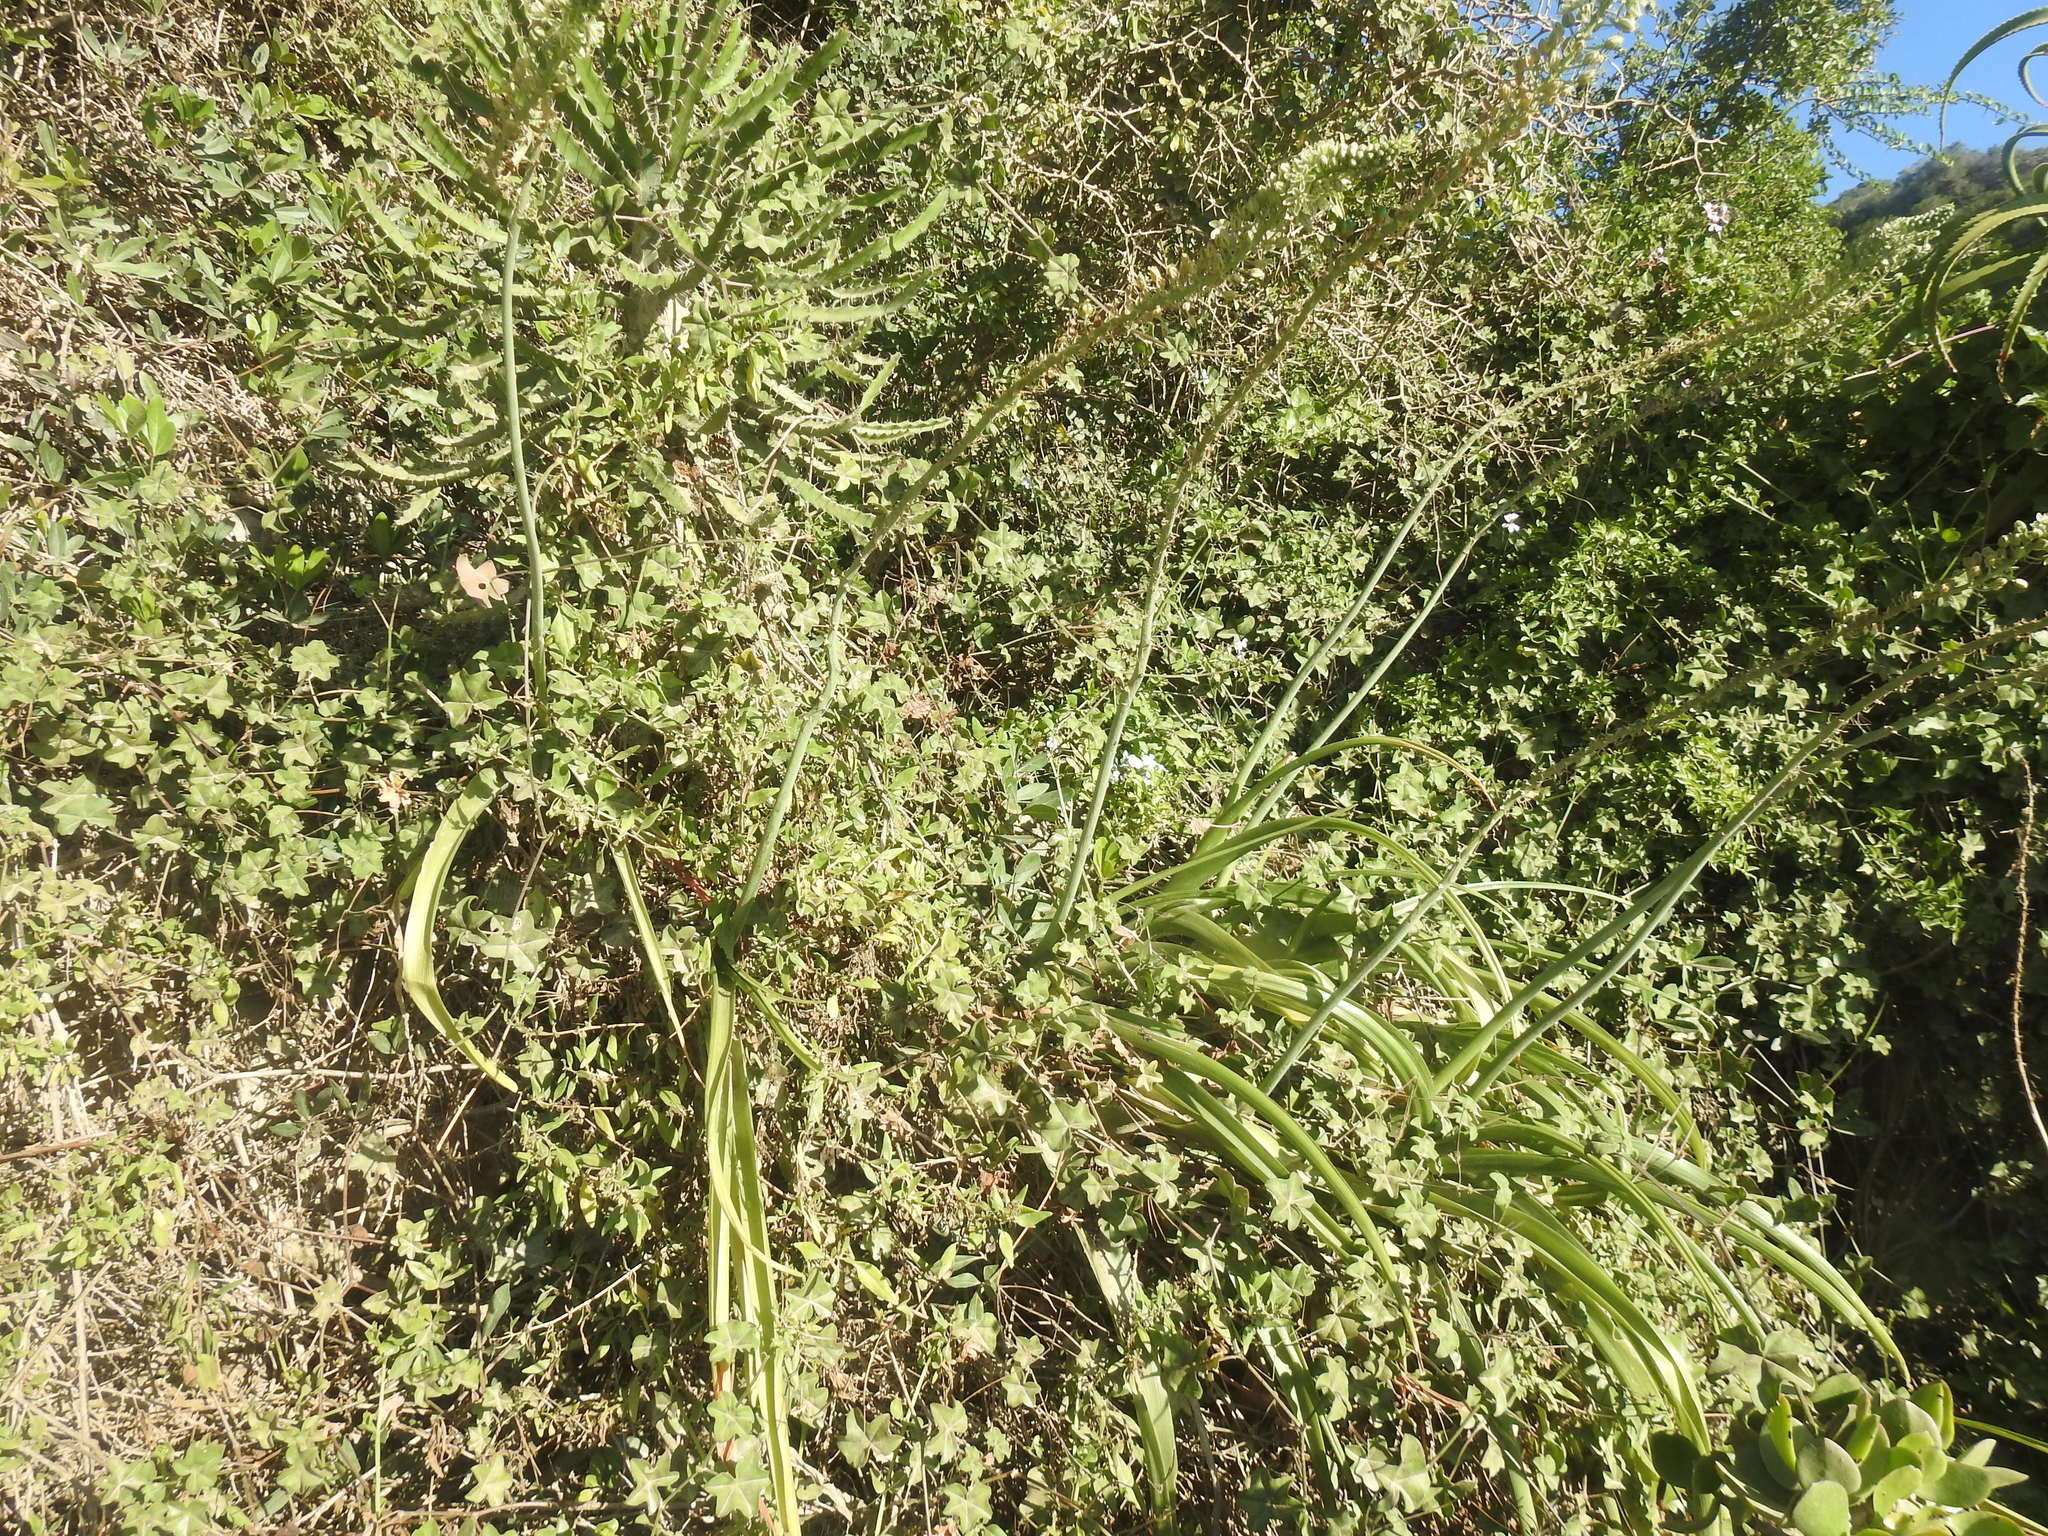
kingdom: Plantae
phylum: Tracheophyta
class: Liliopsida
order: Asparagales
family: Asparagaceae
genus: Albuca
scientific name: Albuca bracteata
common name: Sea-onion
